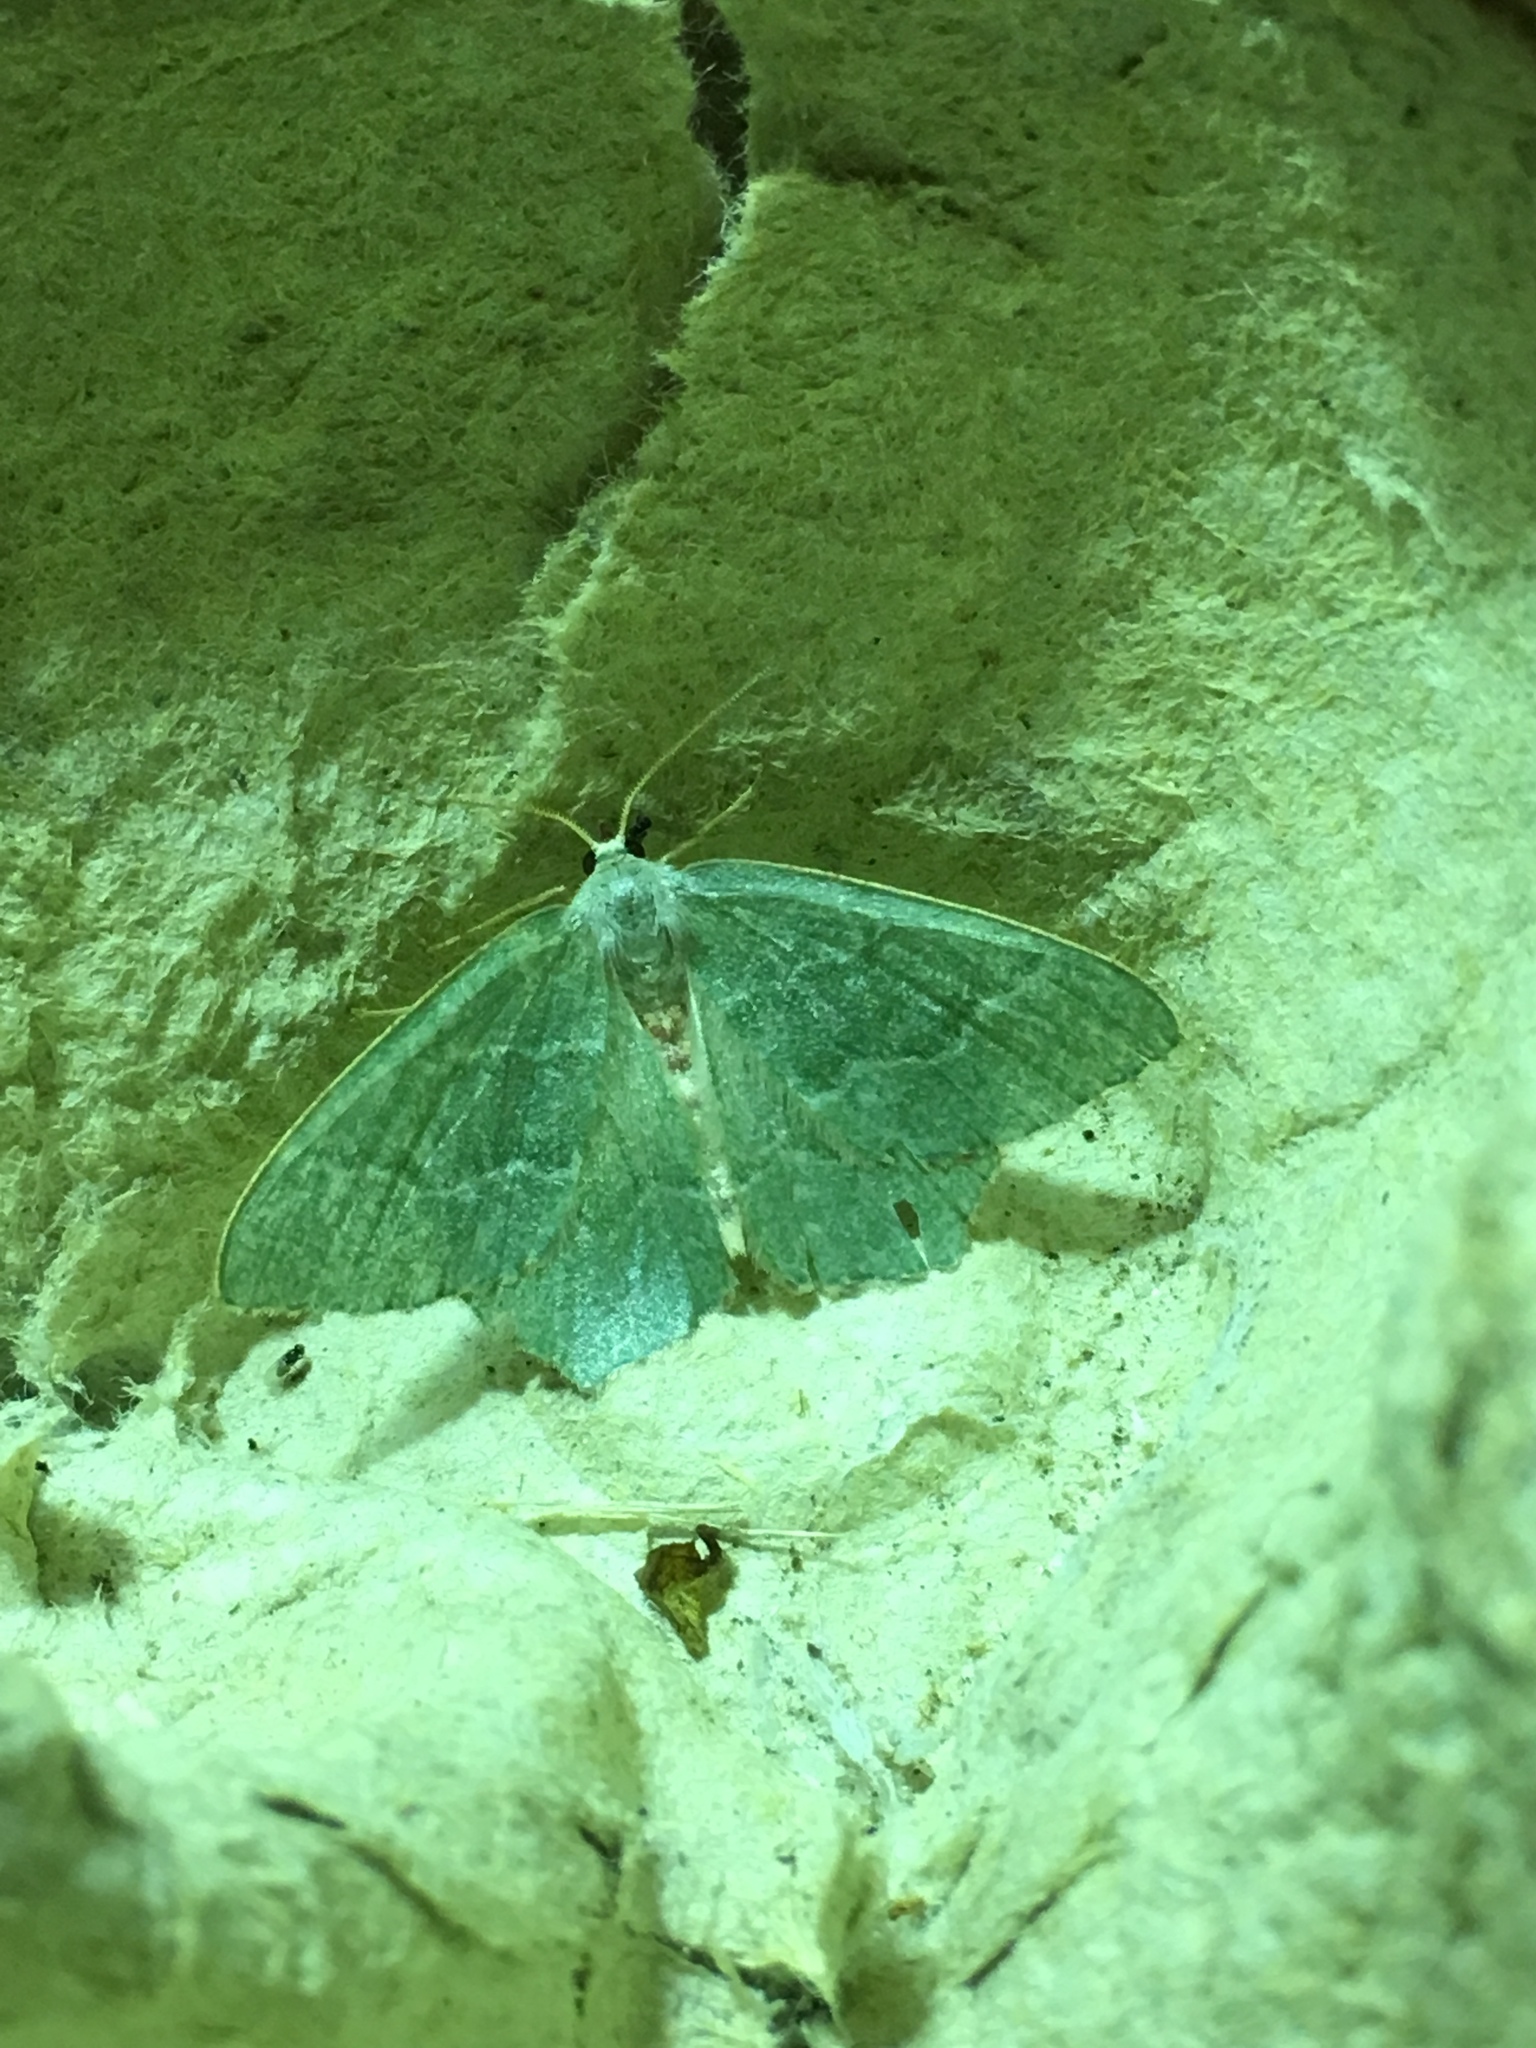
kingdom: Animalia
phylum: Arthropoda
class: Insecta
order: Lepidoptera
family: Geometridae
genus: Hemithea
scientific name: Hemithea aestivaria
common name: Common emerald
